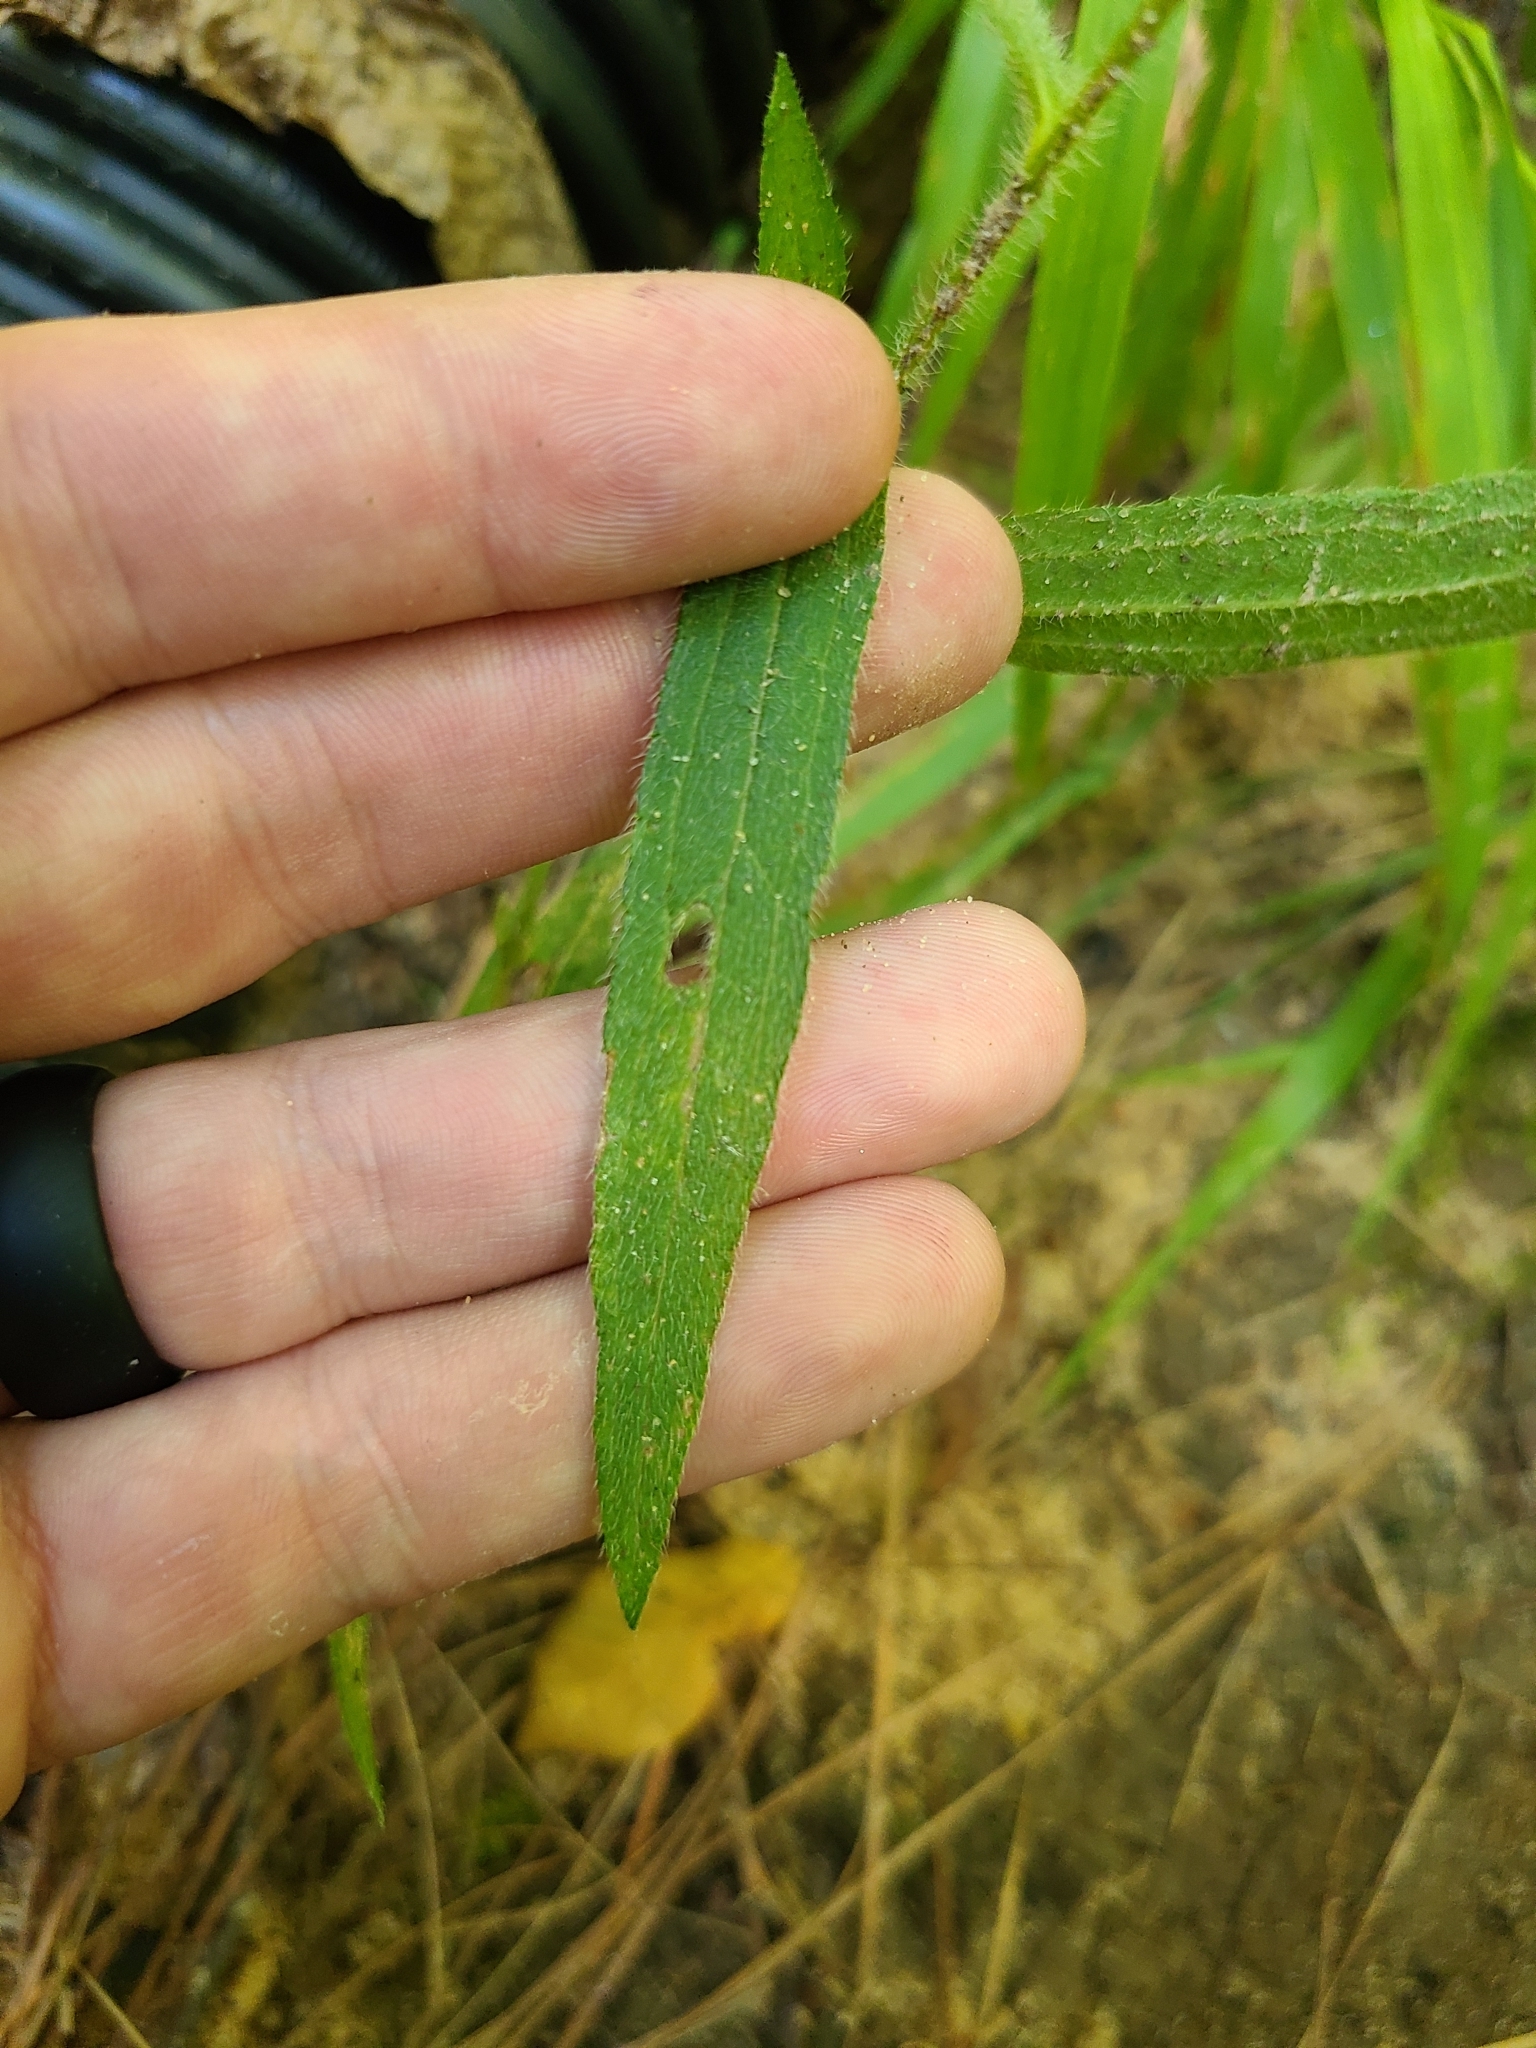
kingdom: Plantae
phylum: Tracheophyta
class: Magnoliopsida
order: Asterales
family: Asteraceae
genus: Rudbeckia
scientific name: Rudbeckia hirta
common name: Black-eyed-susan
